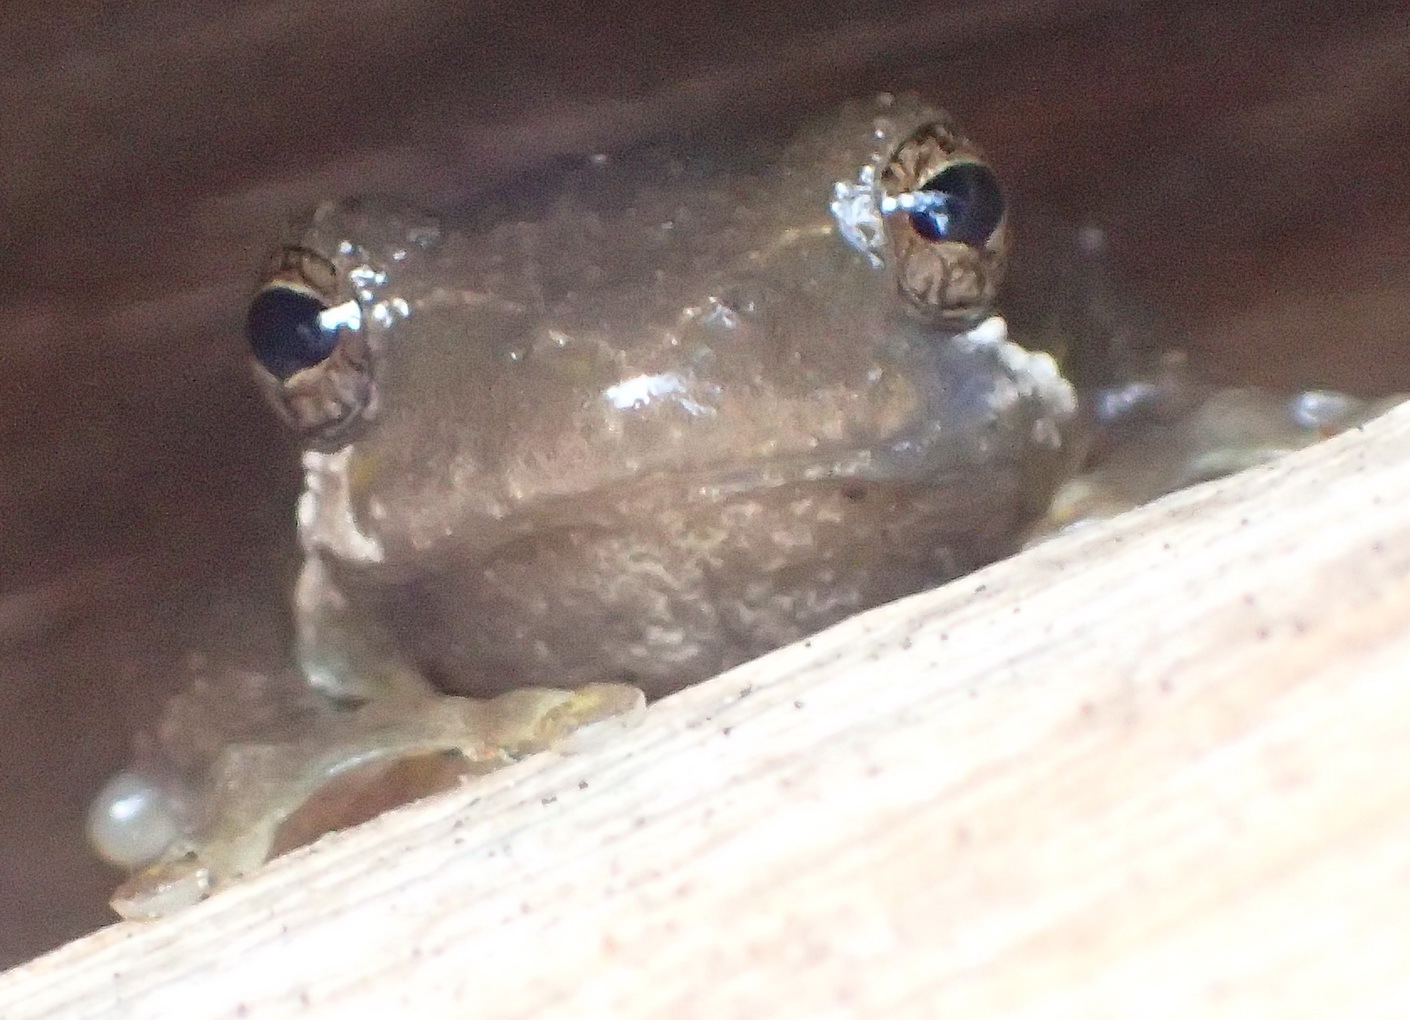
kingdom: Animalia
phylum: Chordata
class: Amphibia
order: Anura
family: Hyperoliidae
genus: Hyperolius
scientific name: Hyperolius marmoratus
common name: Painted reed frog
